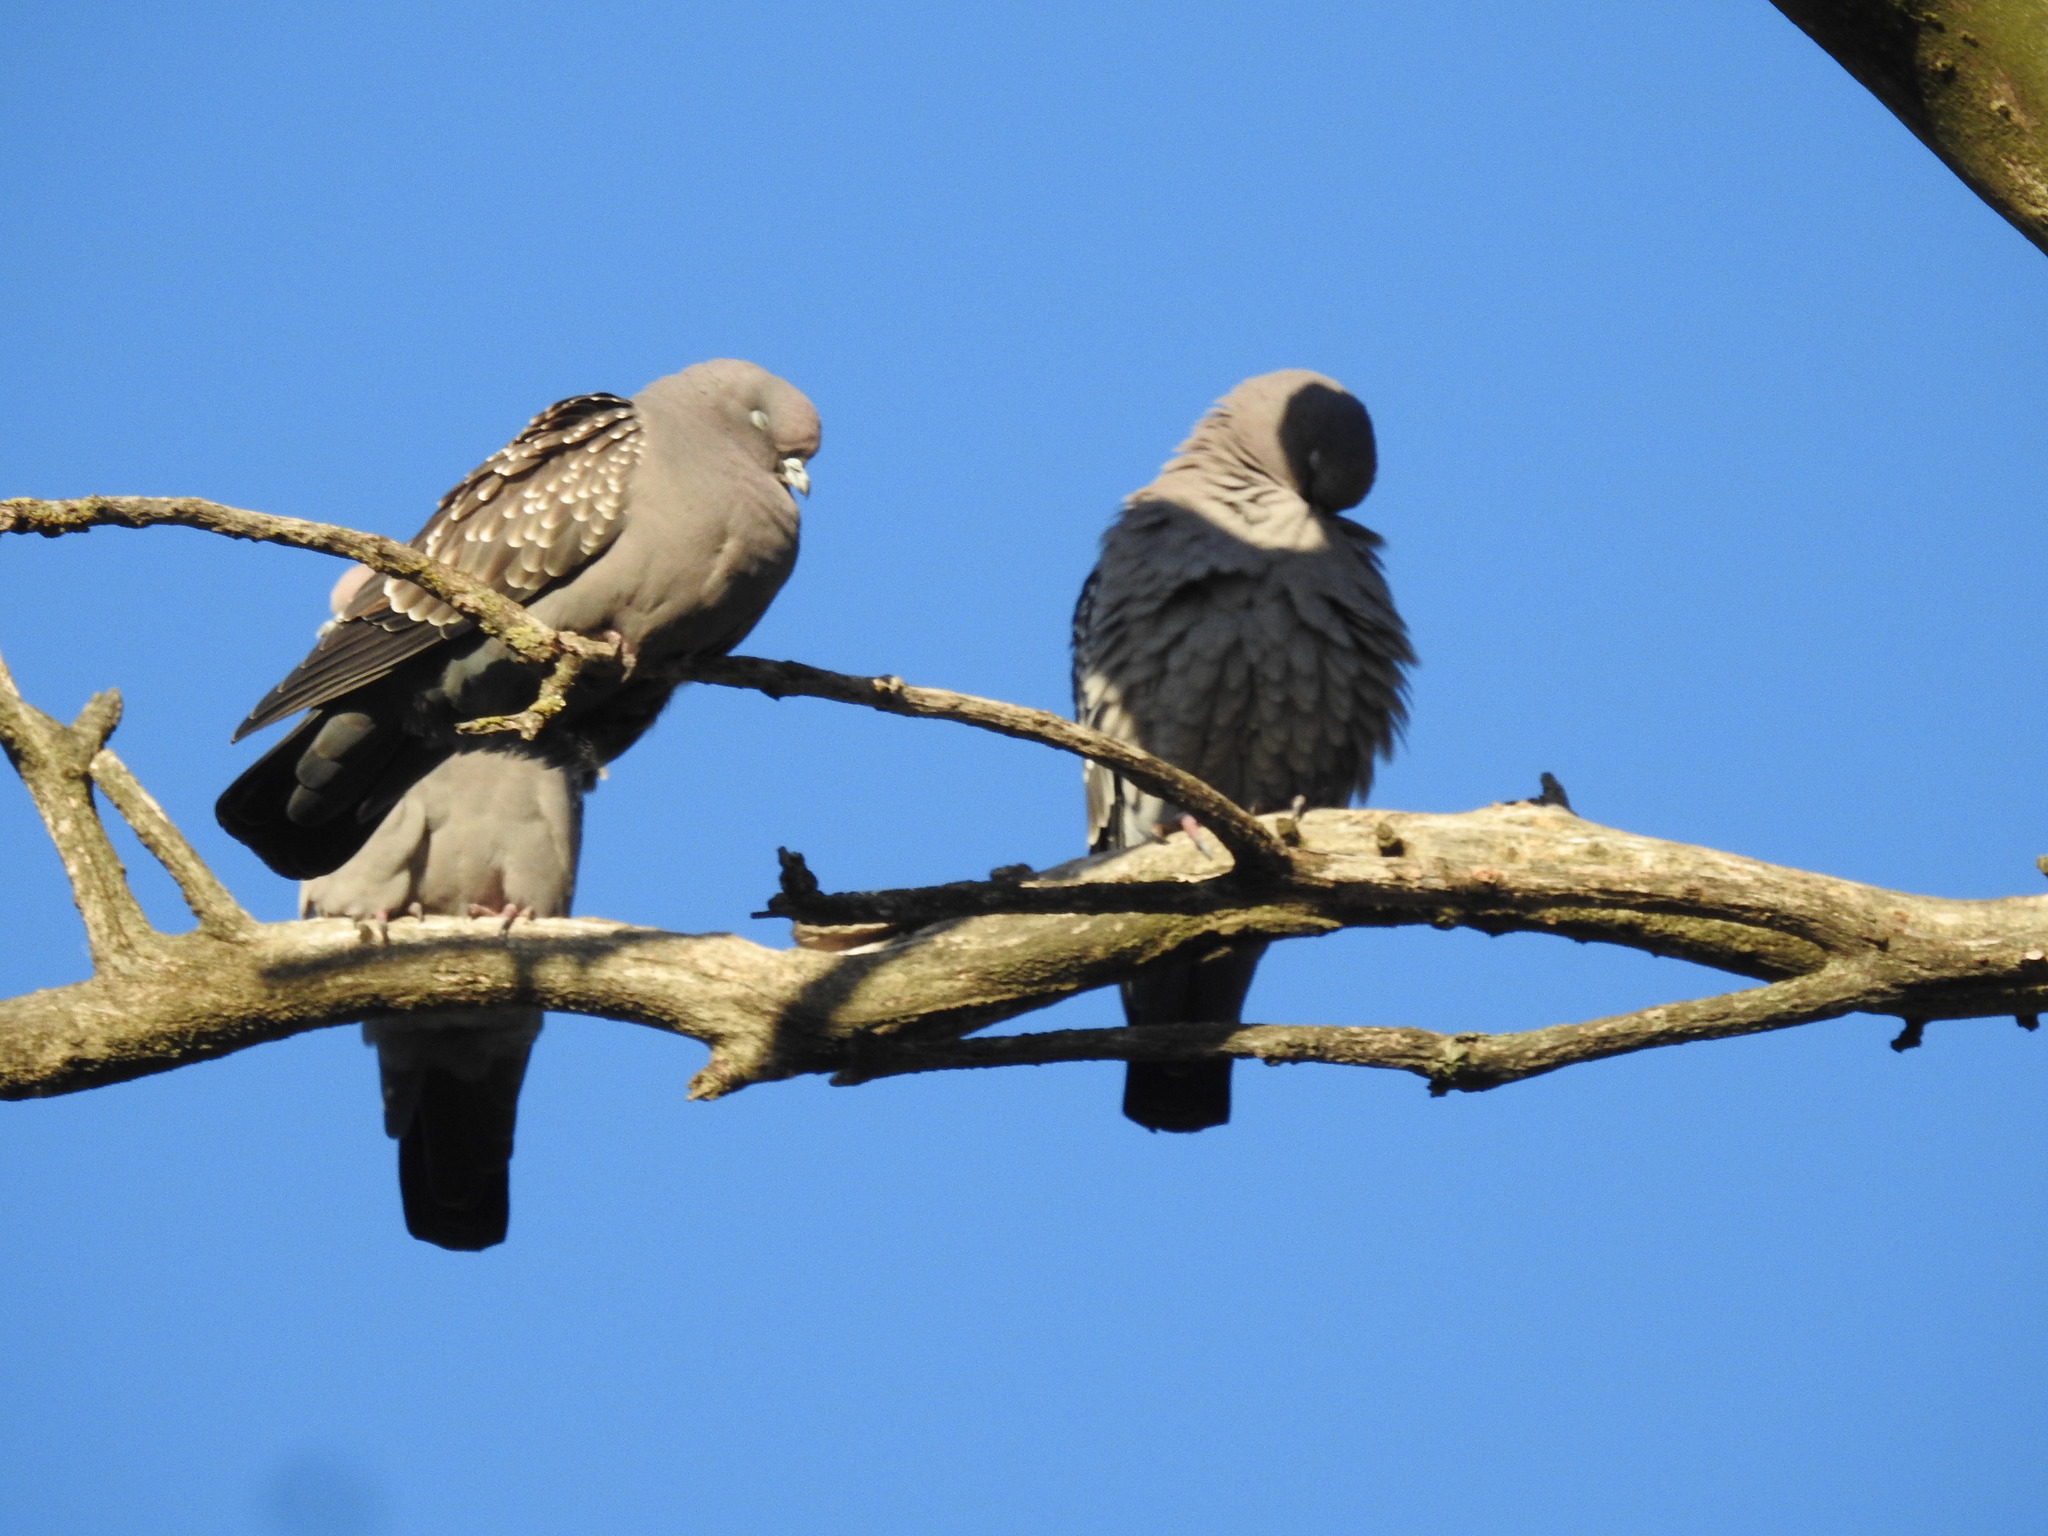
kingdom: Animalia
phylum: Chordata
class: Aves
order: Columbiformes
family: Columbidae
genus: Patagioenas
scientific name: Patagioenas maculosa
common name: Spot-winged pigeon
